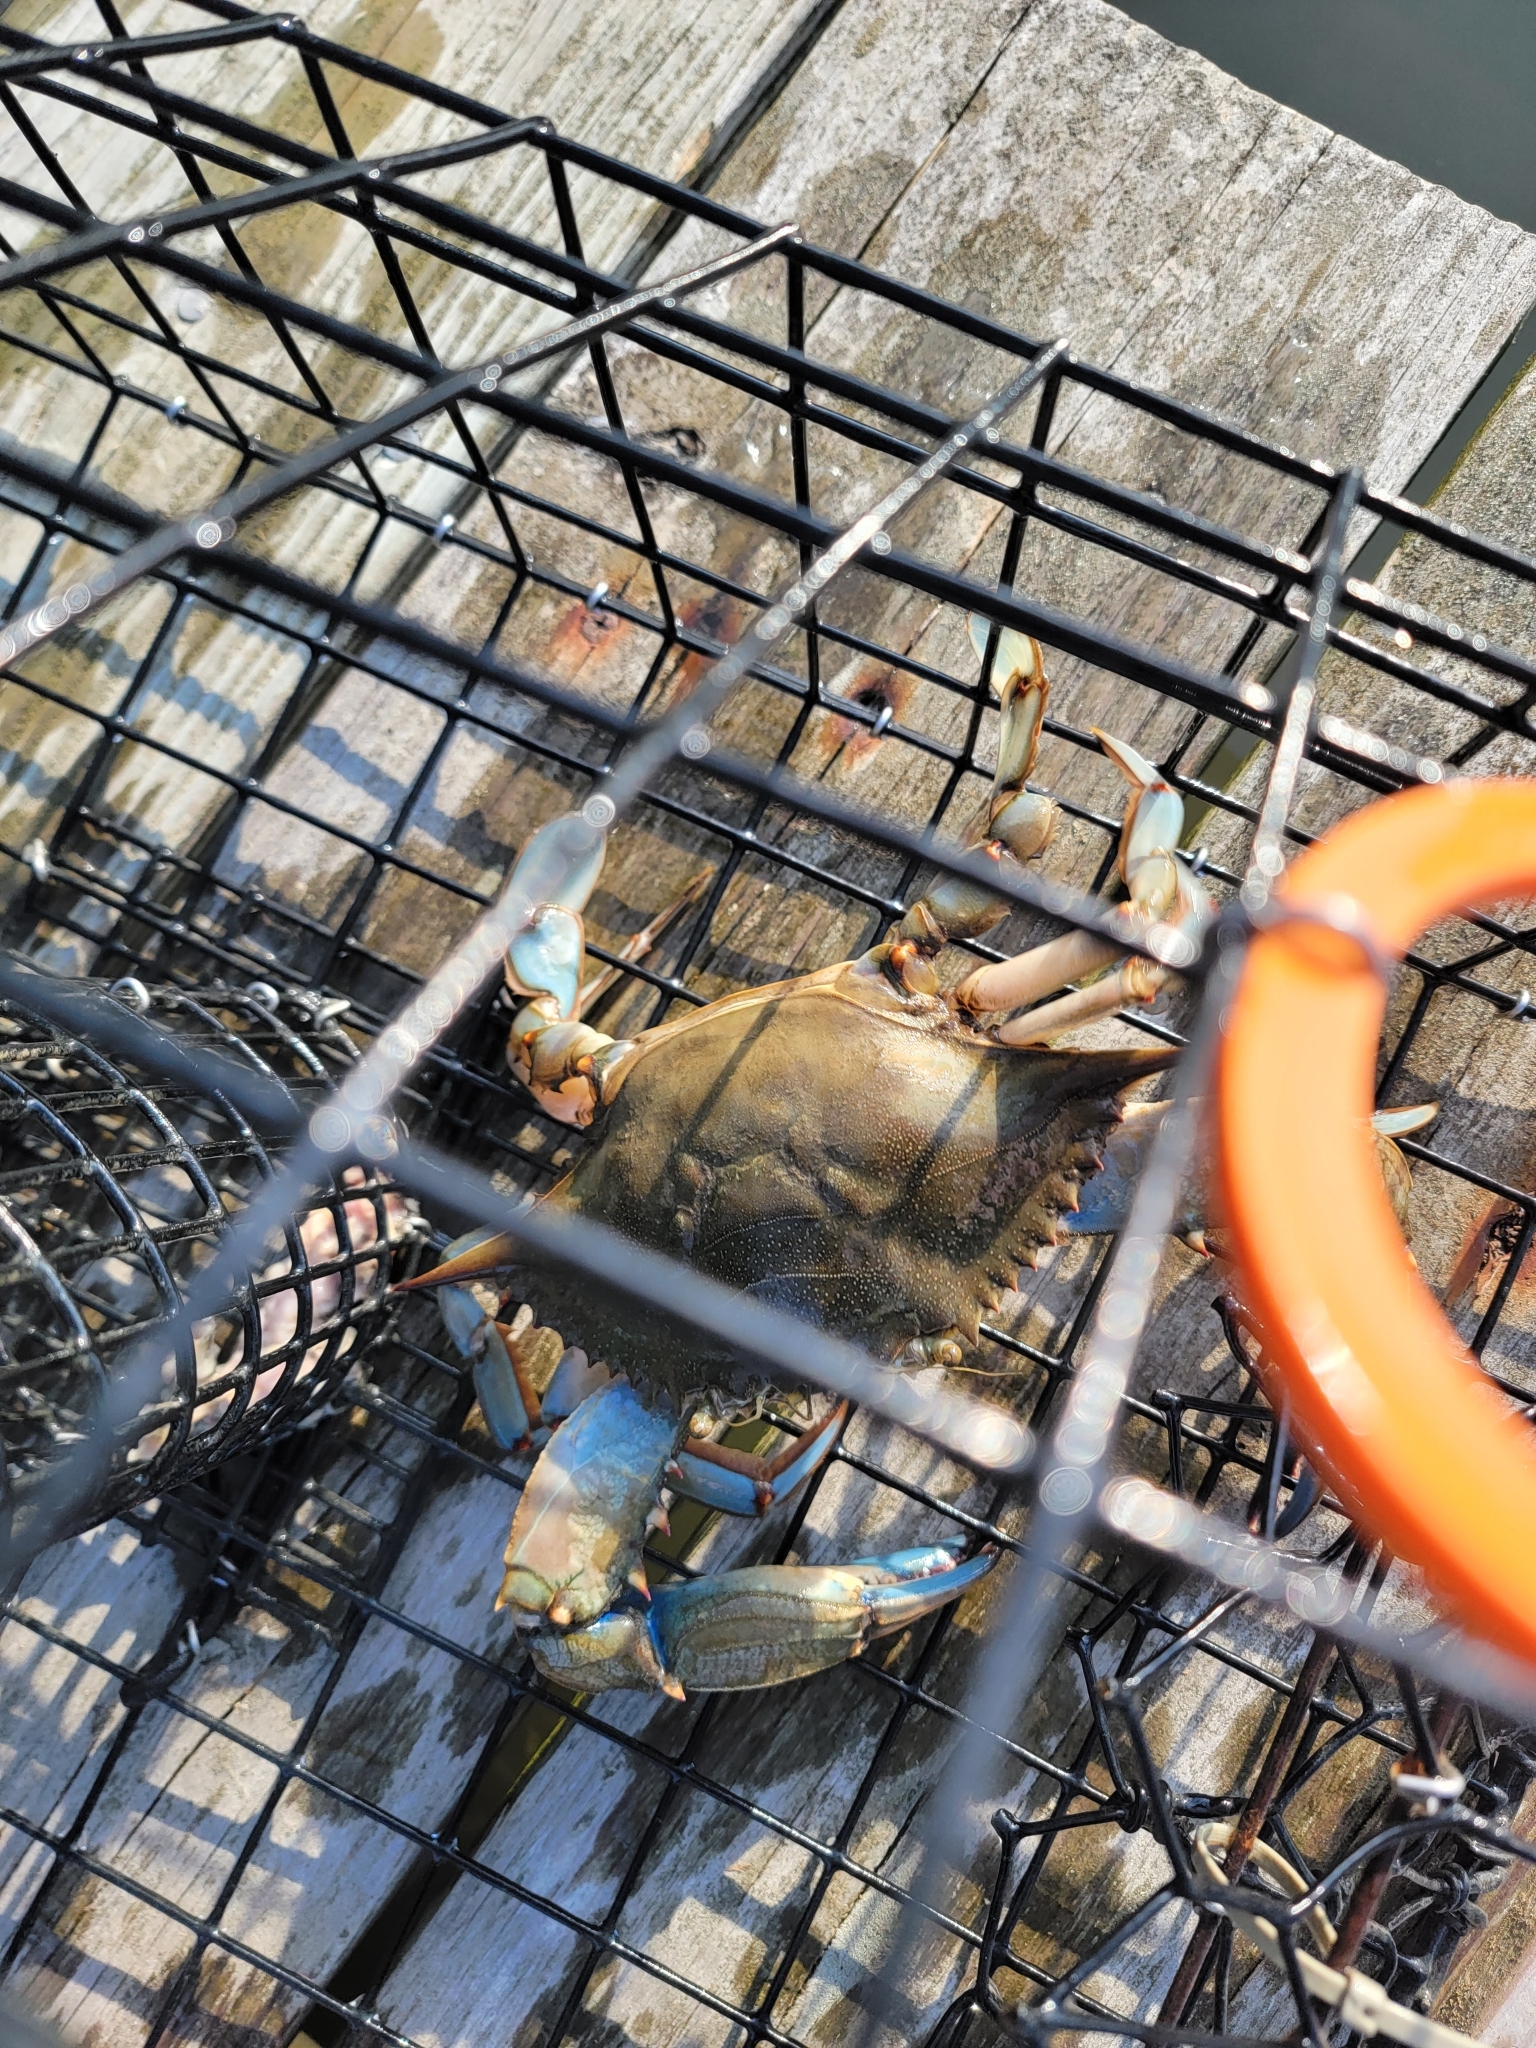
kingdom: Animalia
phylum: Arthropoda
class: Malacostraca
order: Decapoda
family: Portunidae
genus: Callinectes
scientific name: Callinectes sapidus
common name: Blue crab
